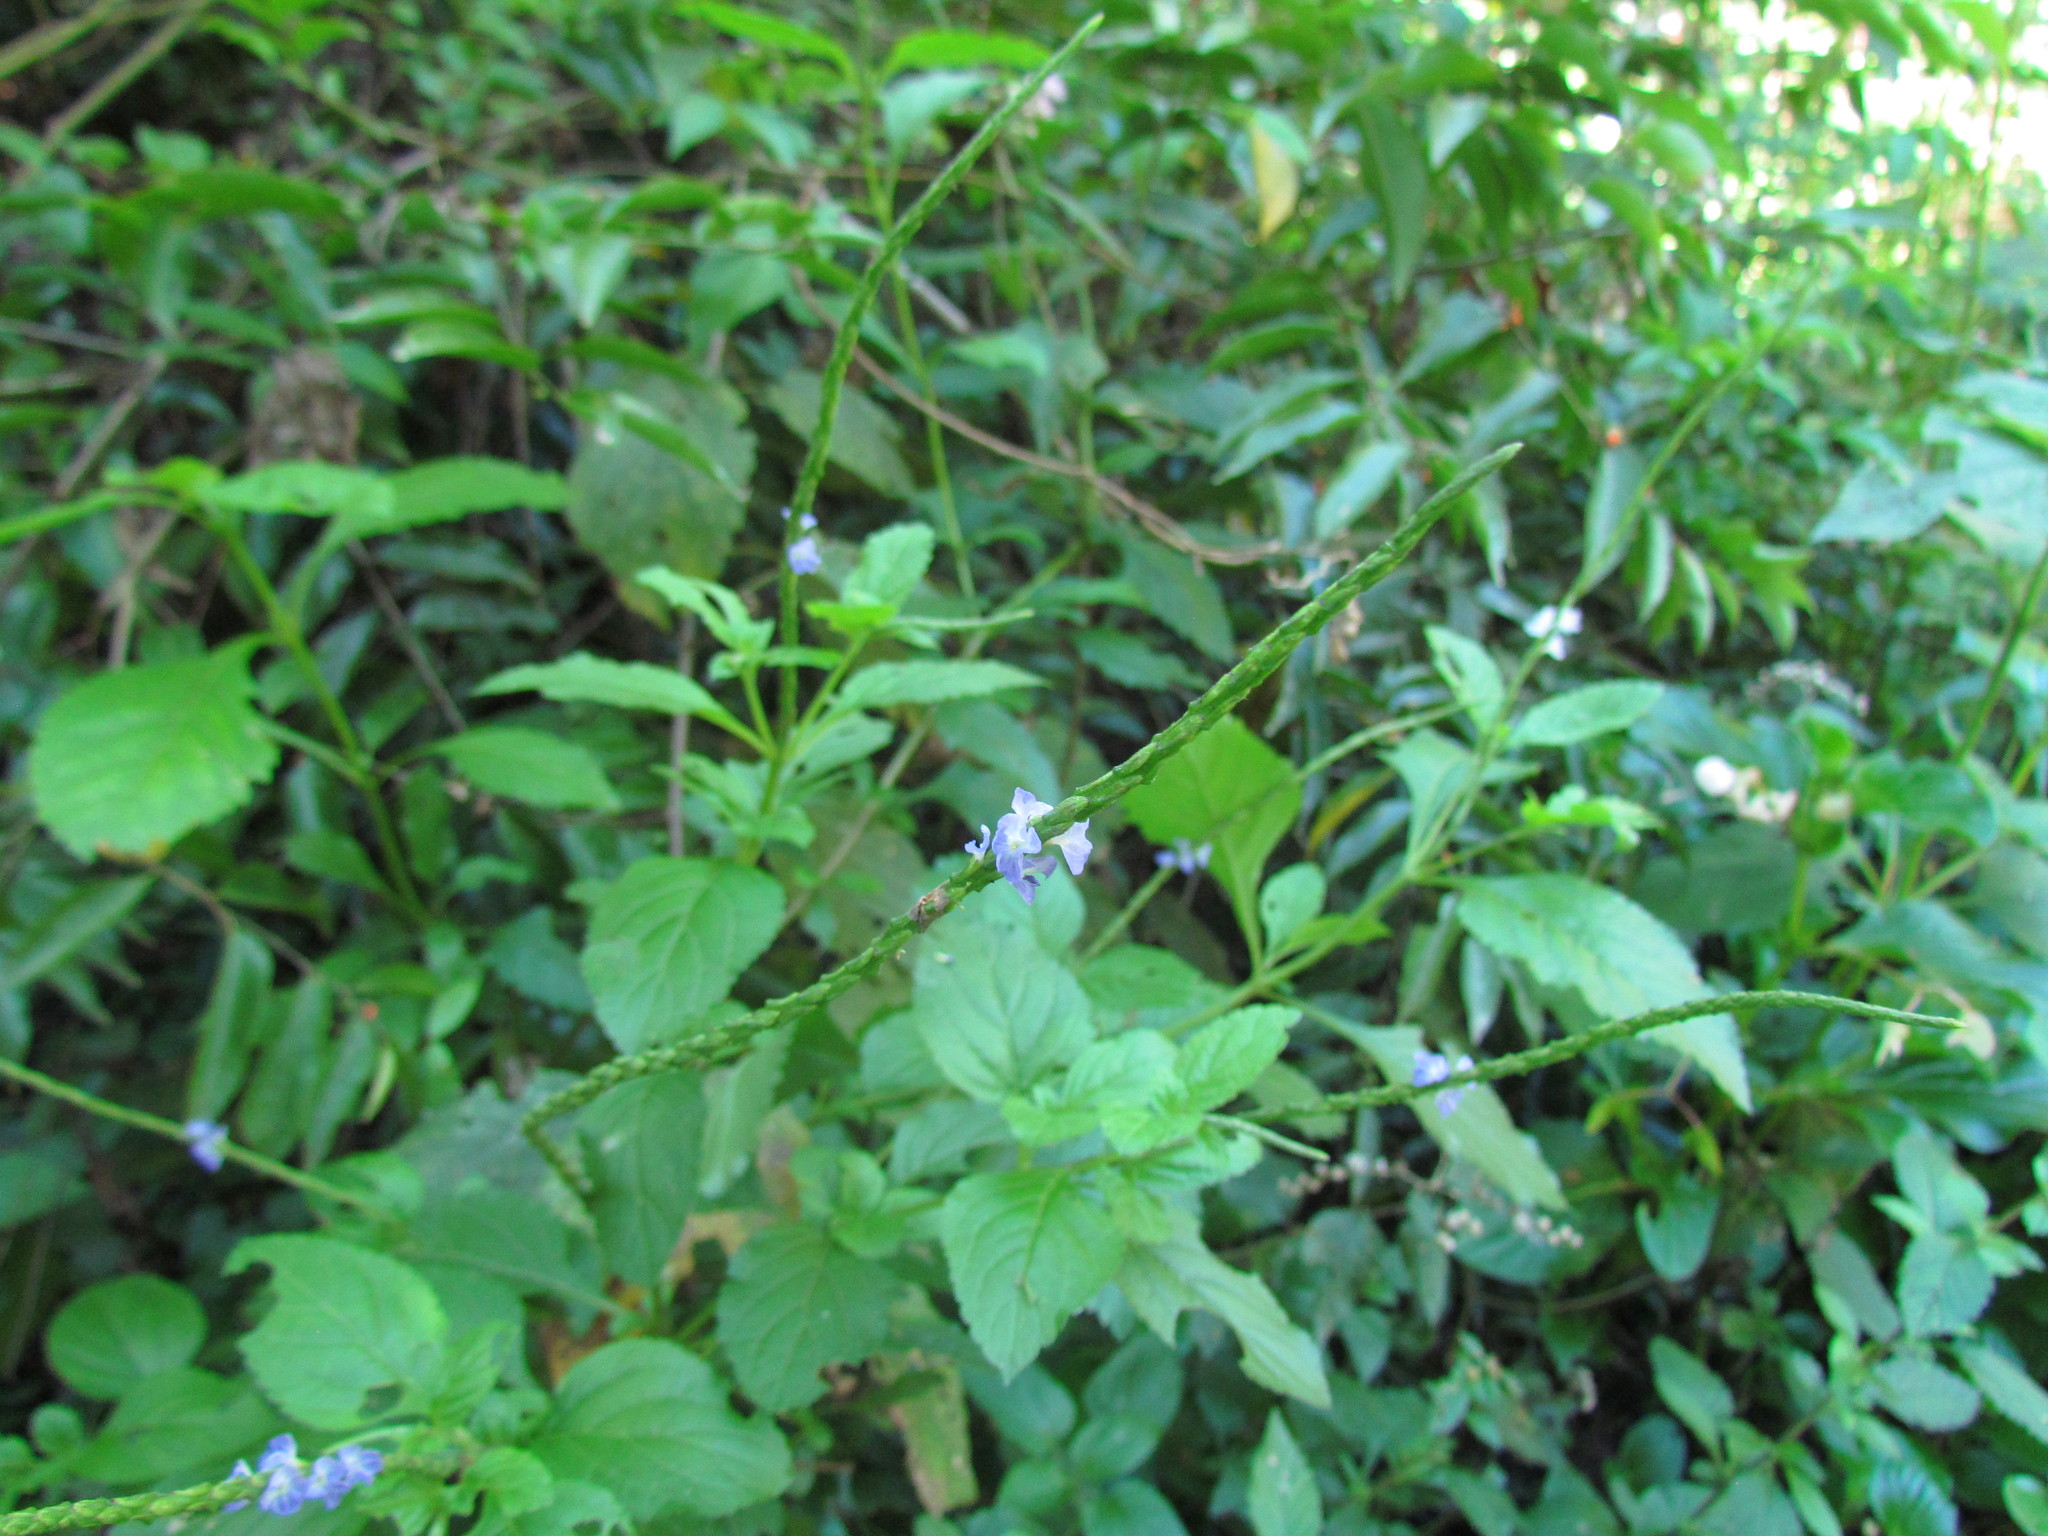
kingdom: Plantae
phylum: Tracheophyta
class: Magnoliopsida
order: Lamiales
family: Verbenaceae
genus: Stachytarpheta
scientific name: Stachytarpheta cayennensis
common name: Cayenne porterweed
